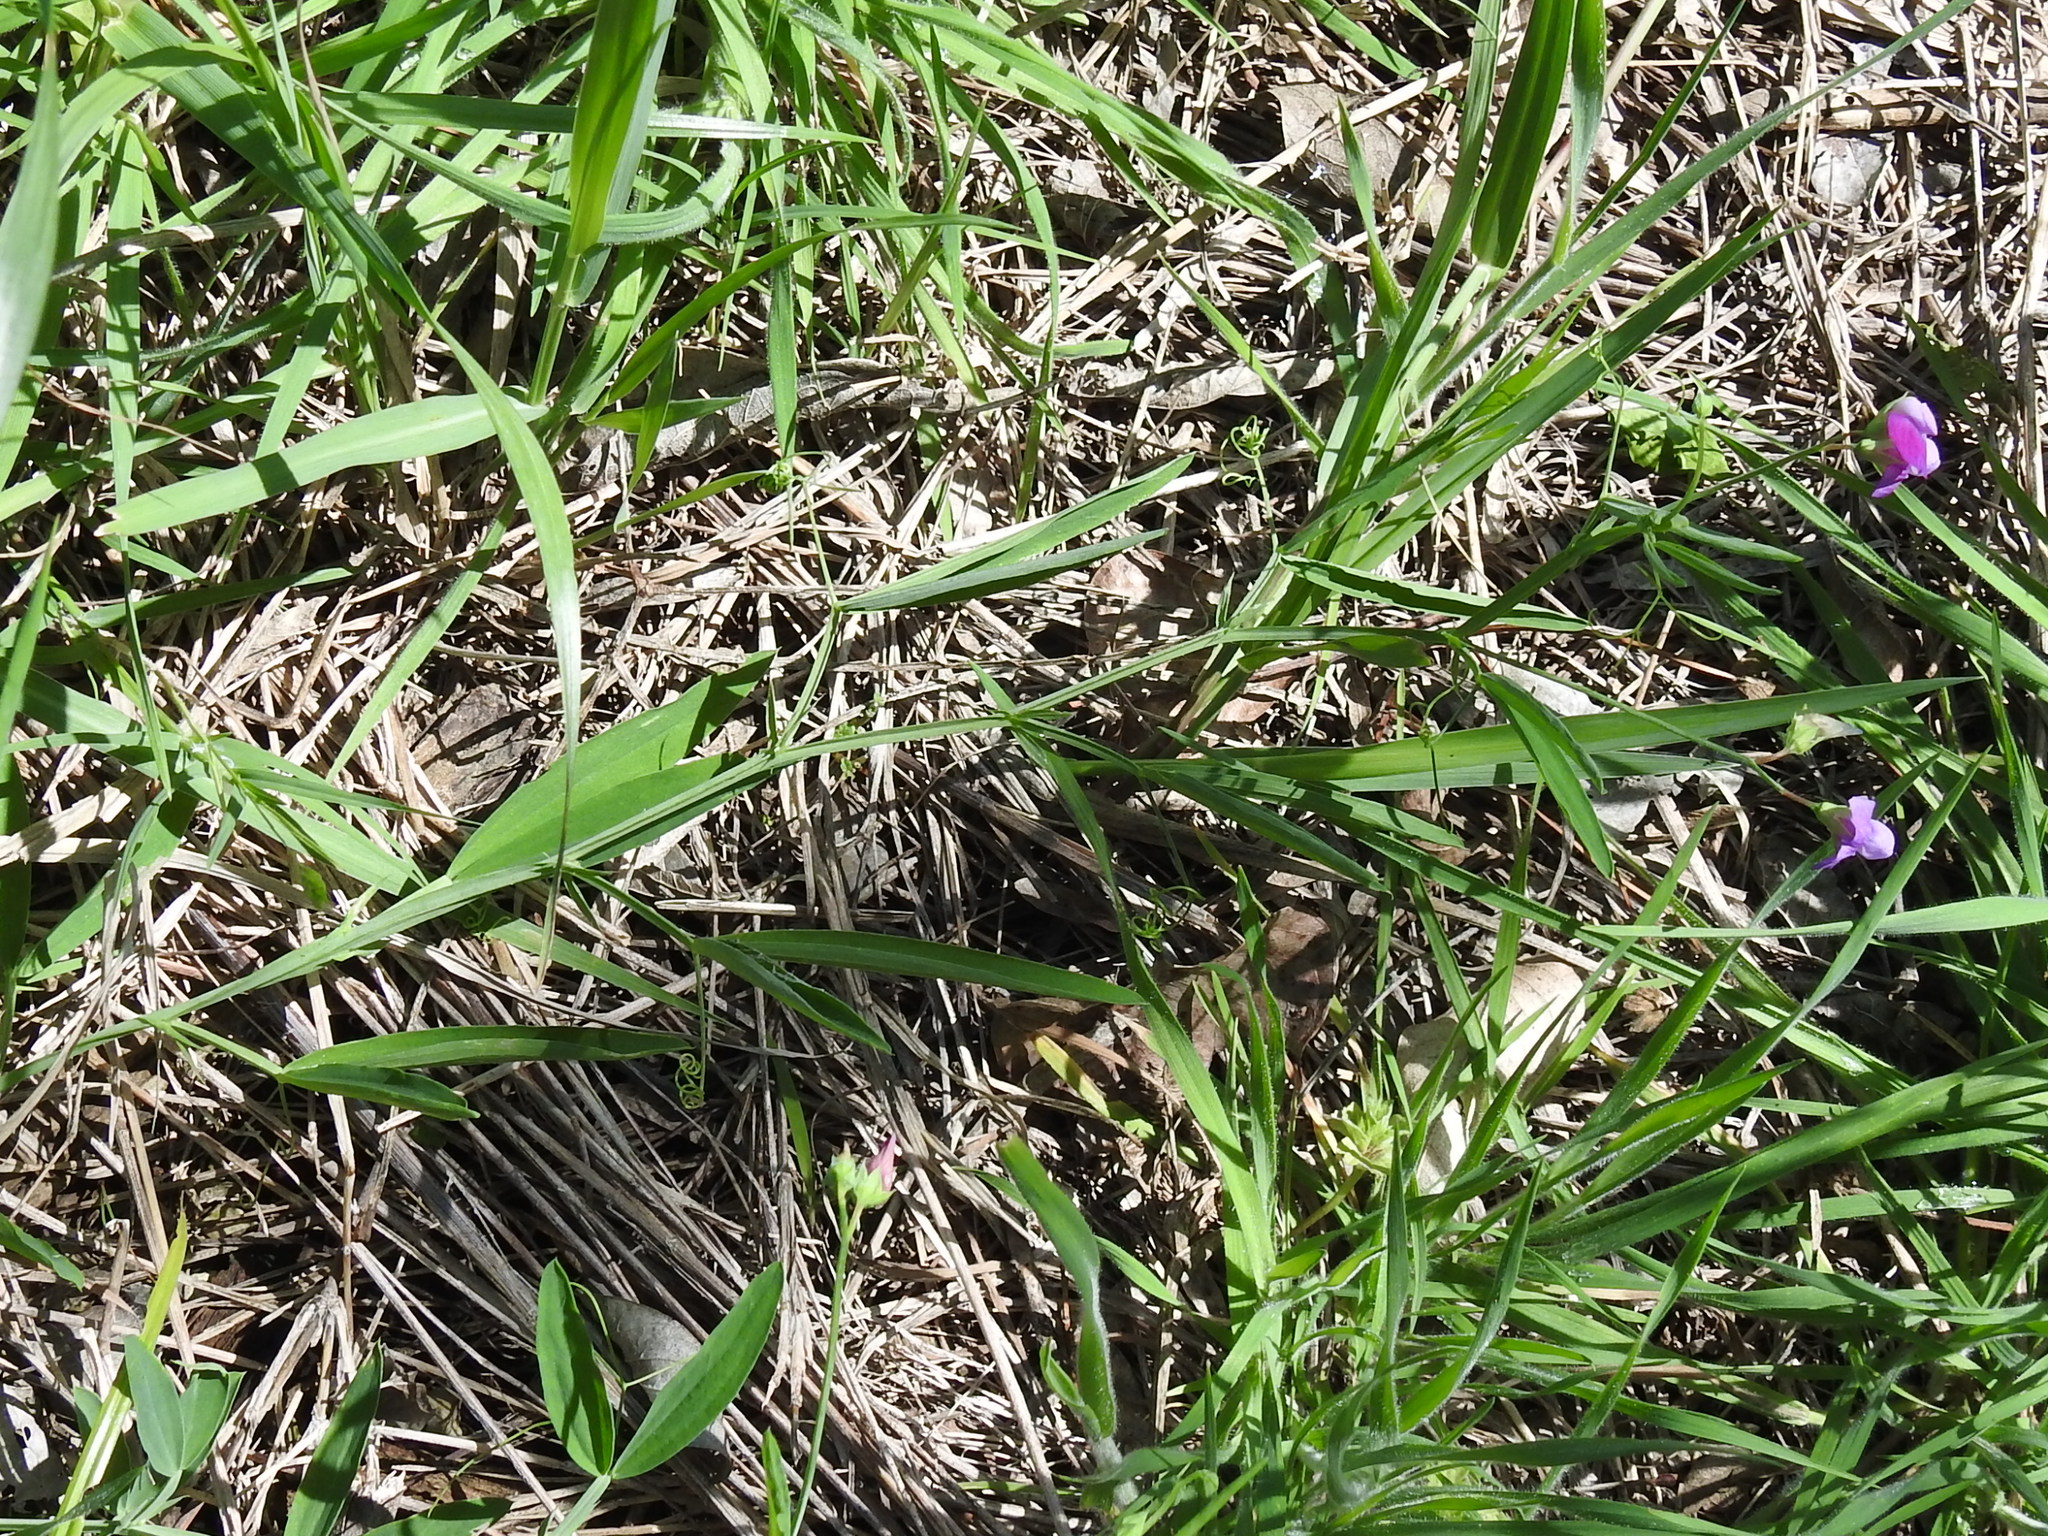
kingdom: Plantae
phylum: Tracheophyta
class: Magnoliopsida
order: Fabales
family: Fabaceae
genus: Lathyrus
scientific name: Lathyrus hirsutus
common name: Hairy vetchling
